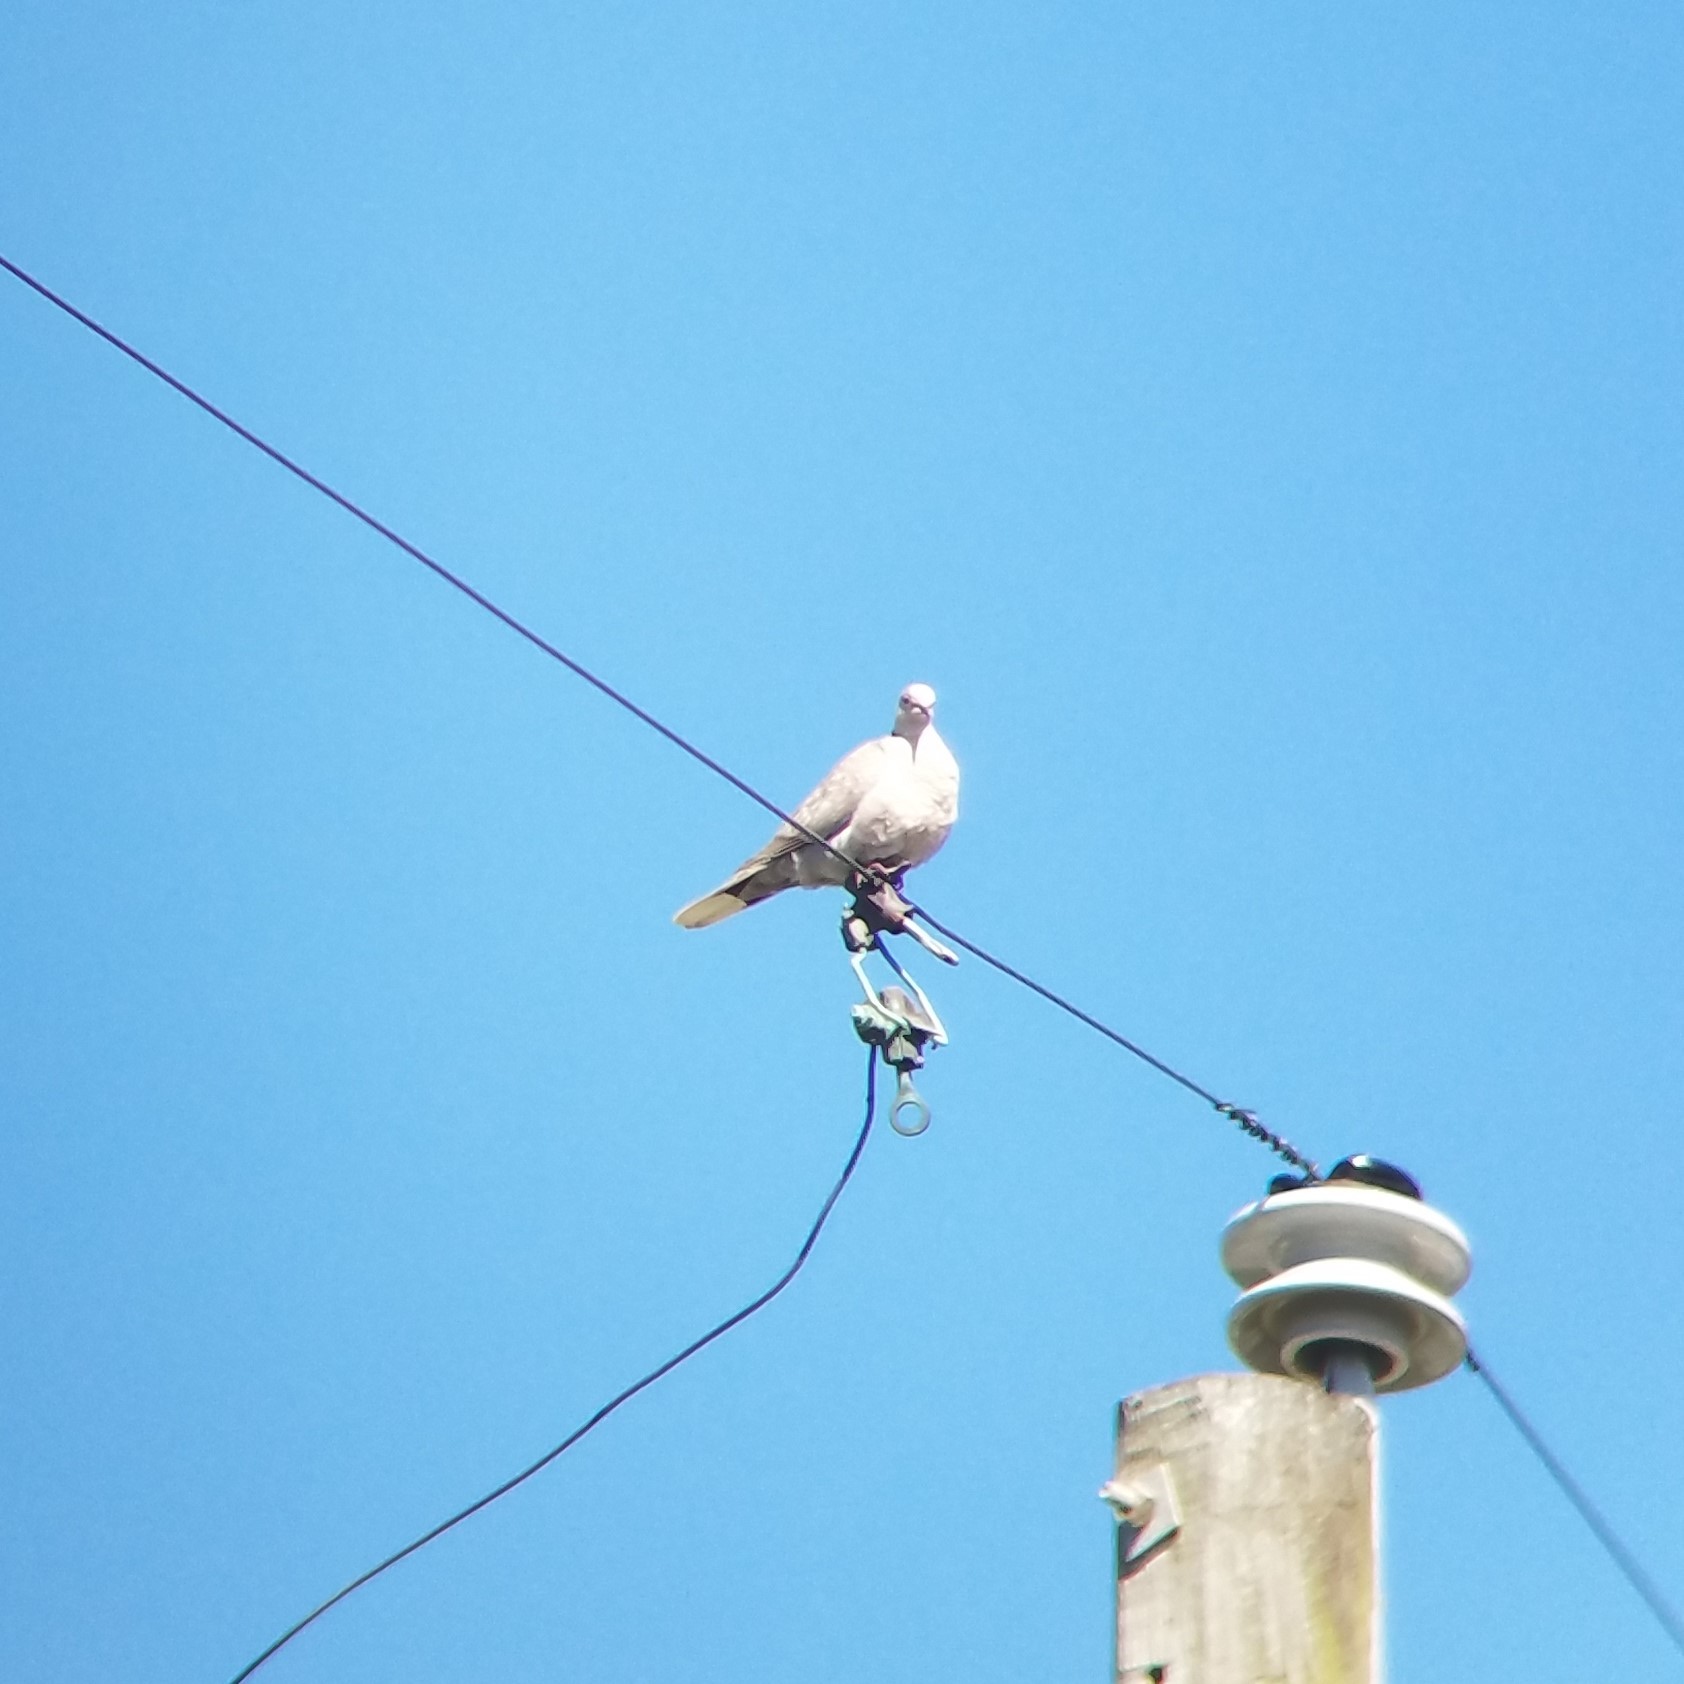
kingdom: Animalia
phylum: Chordata
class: Aves
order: Columbiformes
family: Columbidae
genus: Streptopelia
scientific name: Streptopelia decaocto
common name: Eurasian collared dove
